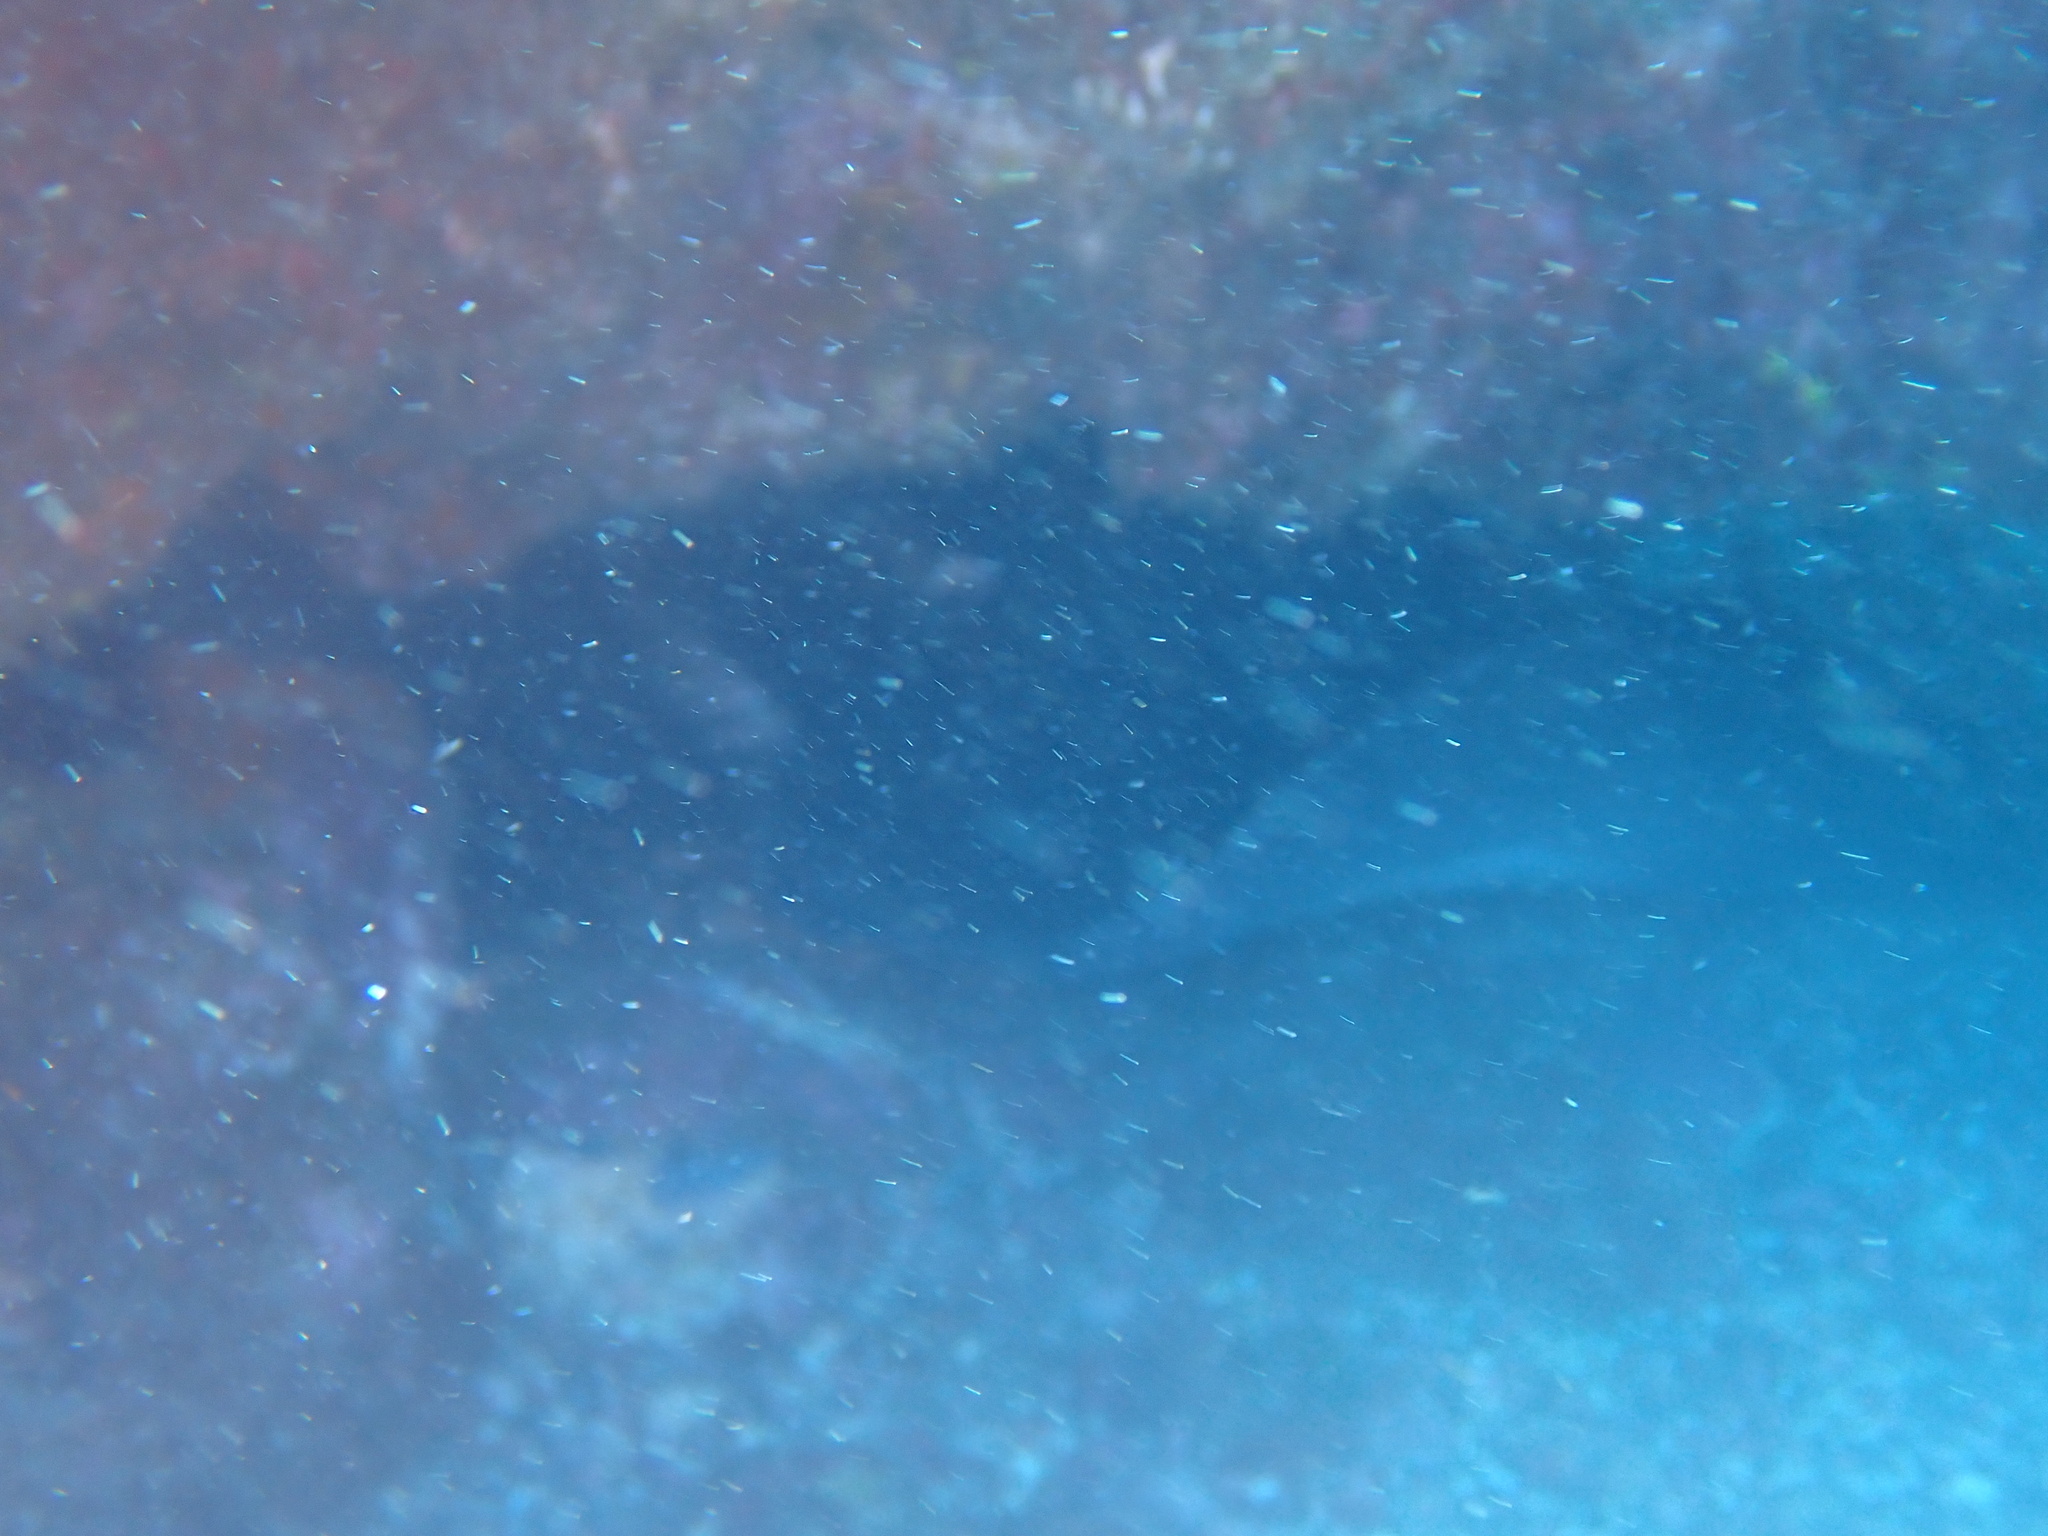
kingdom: Animalia
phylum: Chordata
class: Elasmobranchii
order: Myliobatiformes
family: Dasyatidae
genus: Taeniura
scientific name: Taeniura grabata
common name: Round stingray
